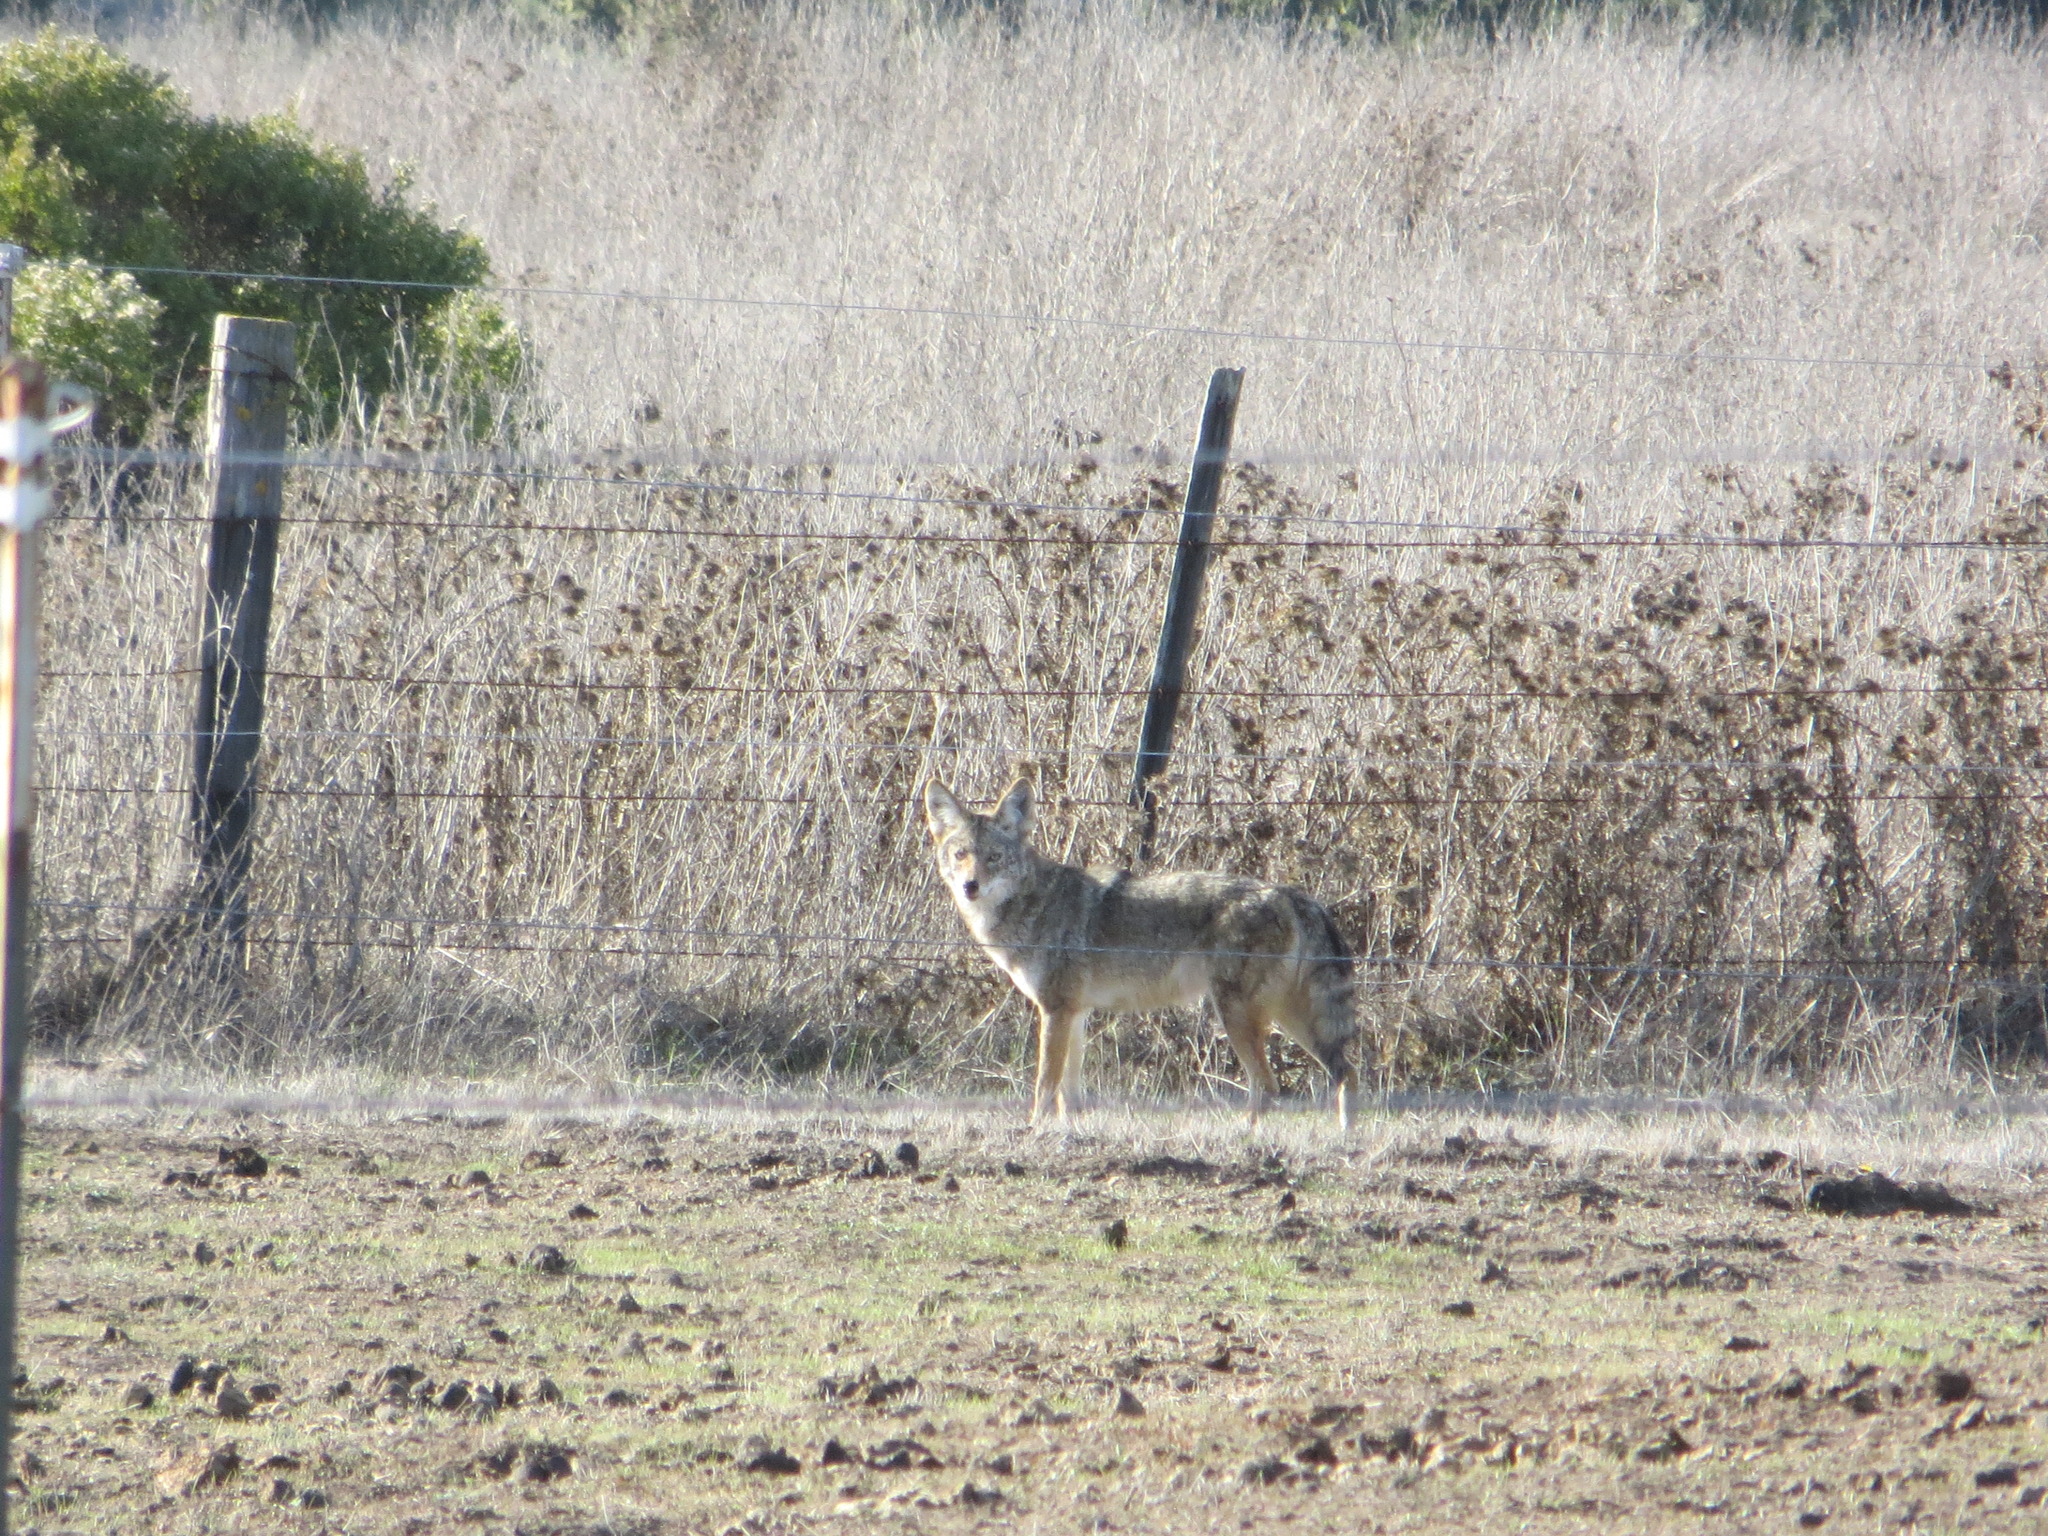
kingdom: Animalia
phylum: Chordata
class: Mammalia
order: Carnivora
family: Canidae
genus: Canis
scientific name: Canis latrans
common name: Coyote
